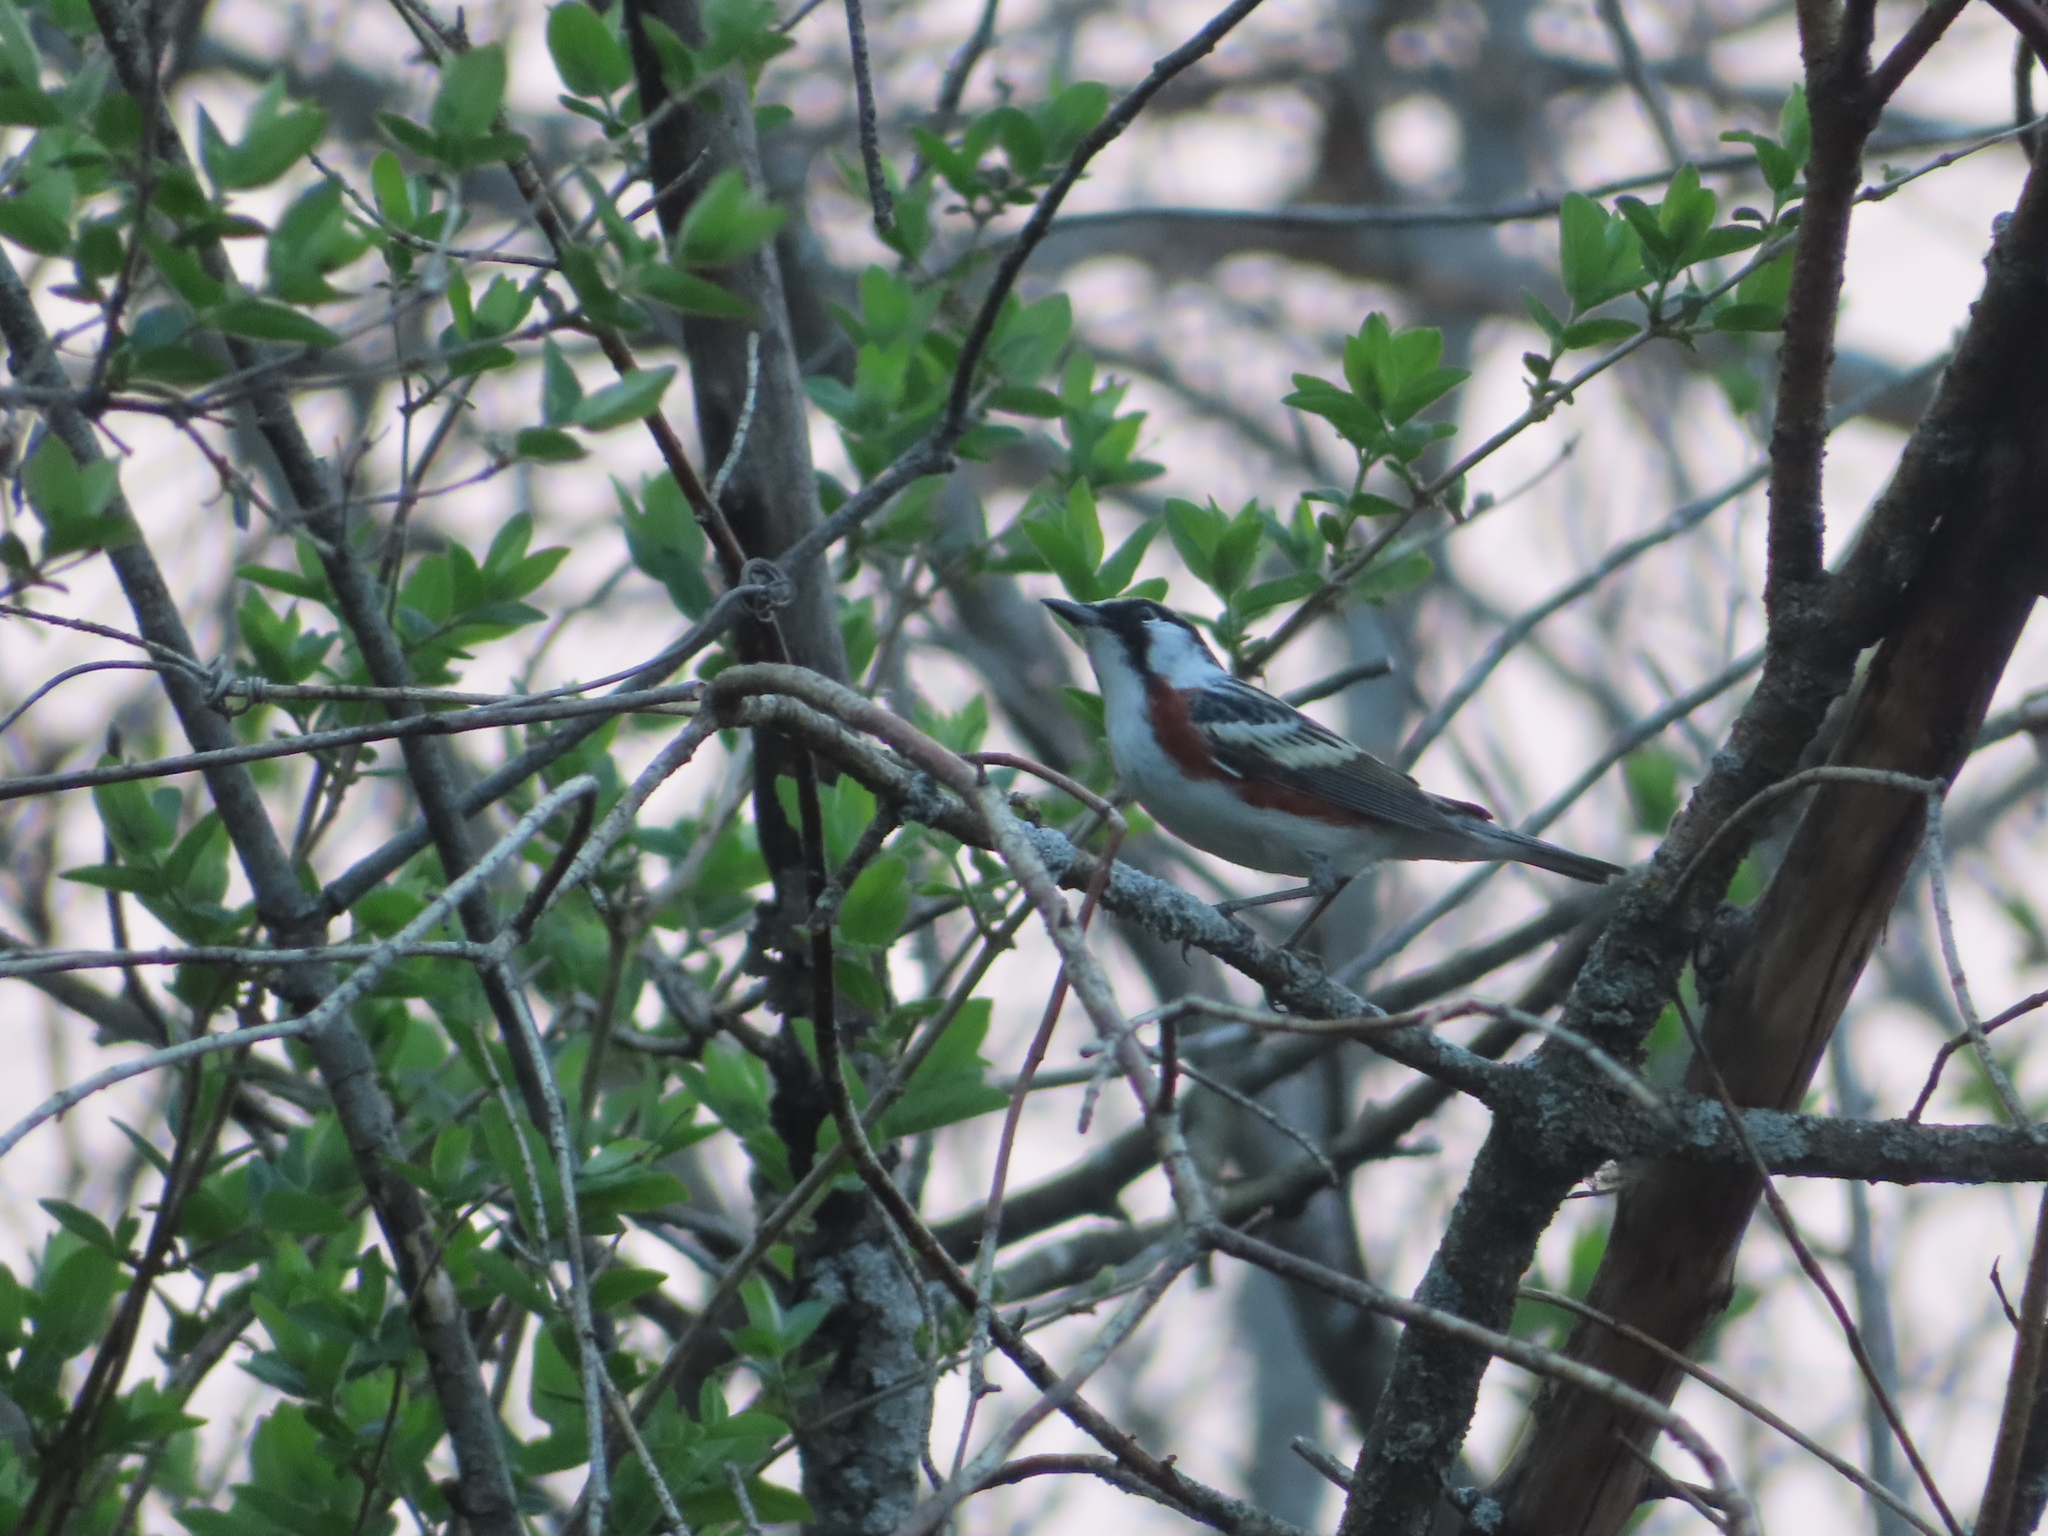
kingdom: Animalia
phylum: Chordata
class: Aves
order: Passeriformes
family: Parulidae
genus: Setophaga
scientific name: Setophaga pensylvanica
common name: Chestnut-sided warbler
